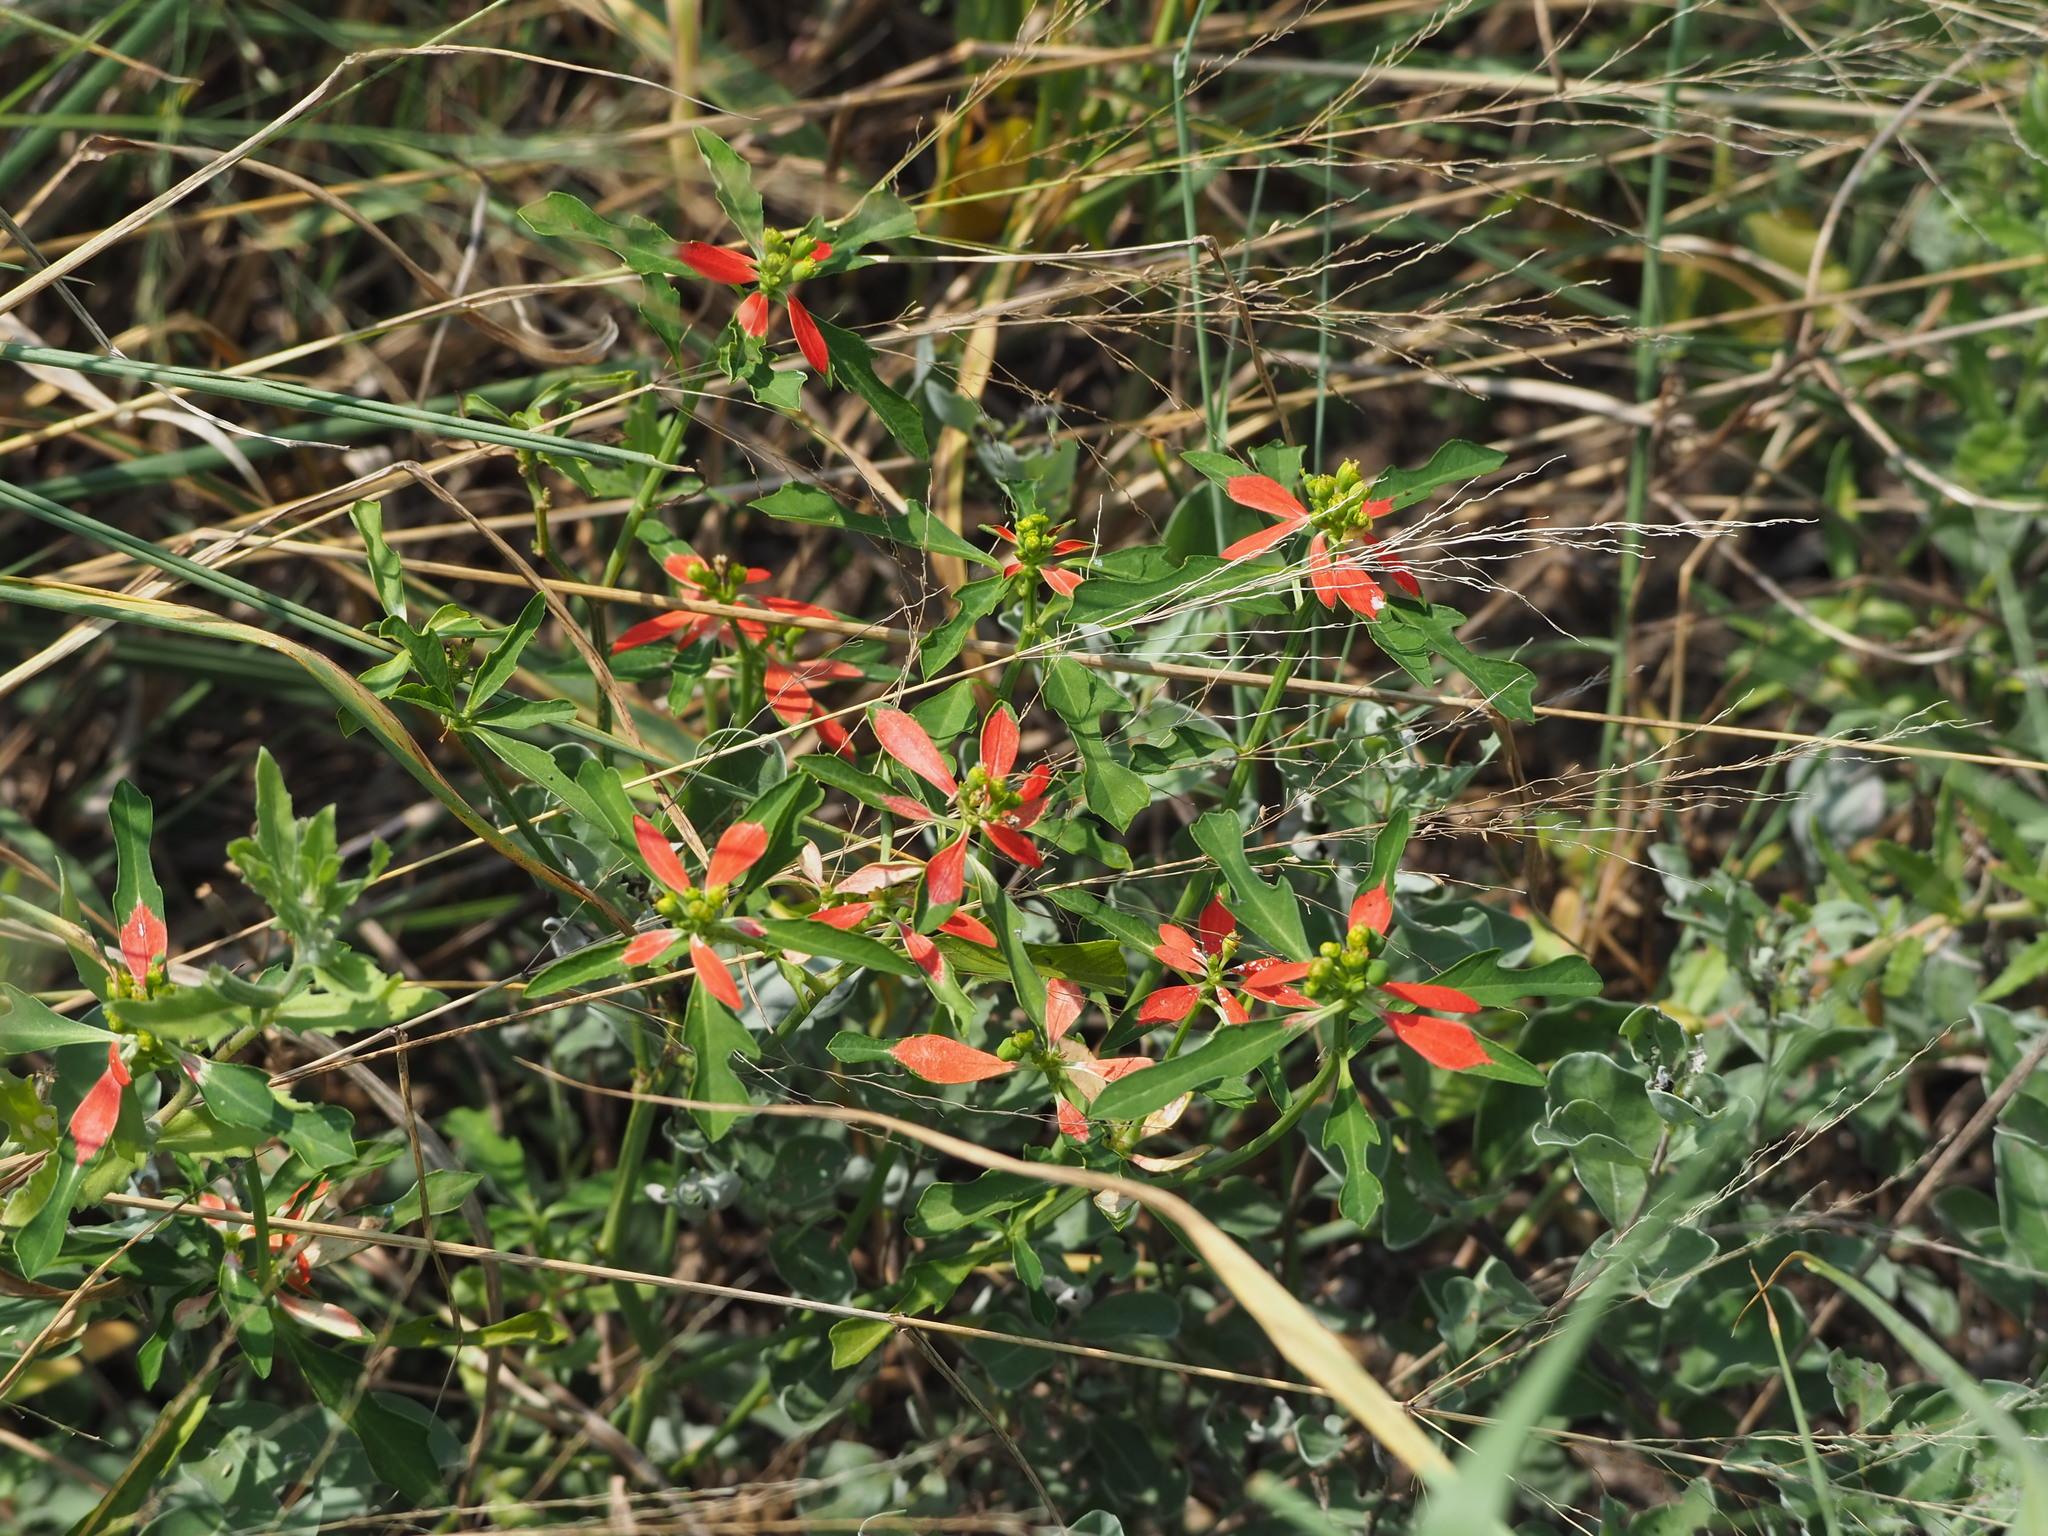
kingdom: Plantae
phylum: Tracheophyta
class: Magnoliopsida
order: Malpighiales
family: Euphorbiaceae
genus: Euphorbia
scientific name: Euphorbia heterophylla
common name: Mexican fireplant
